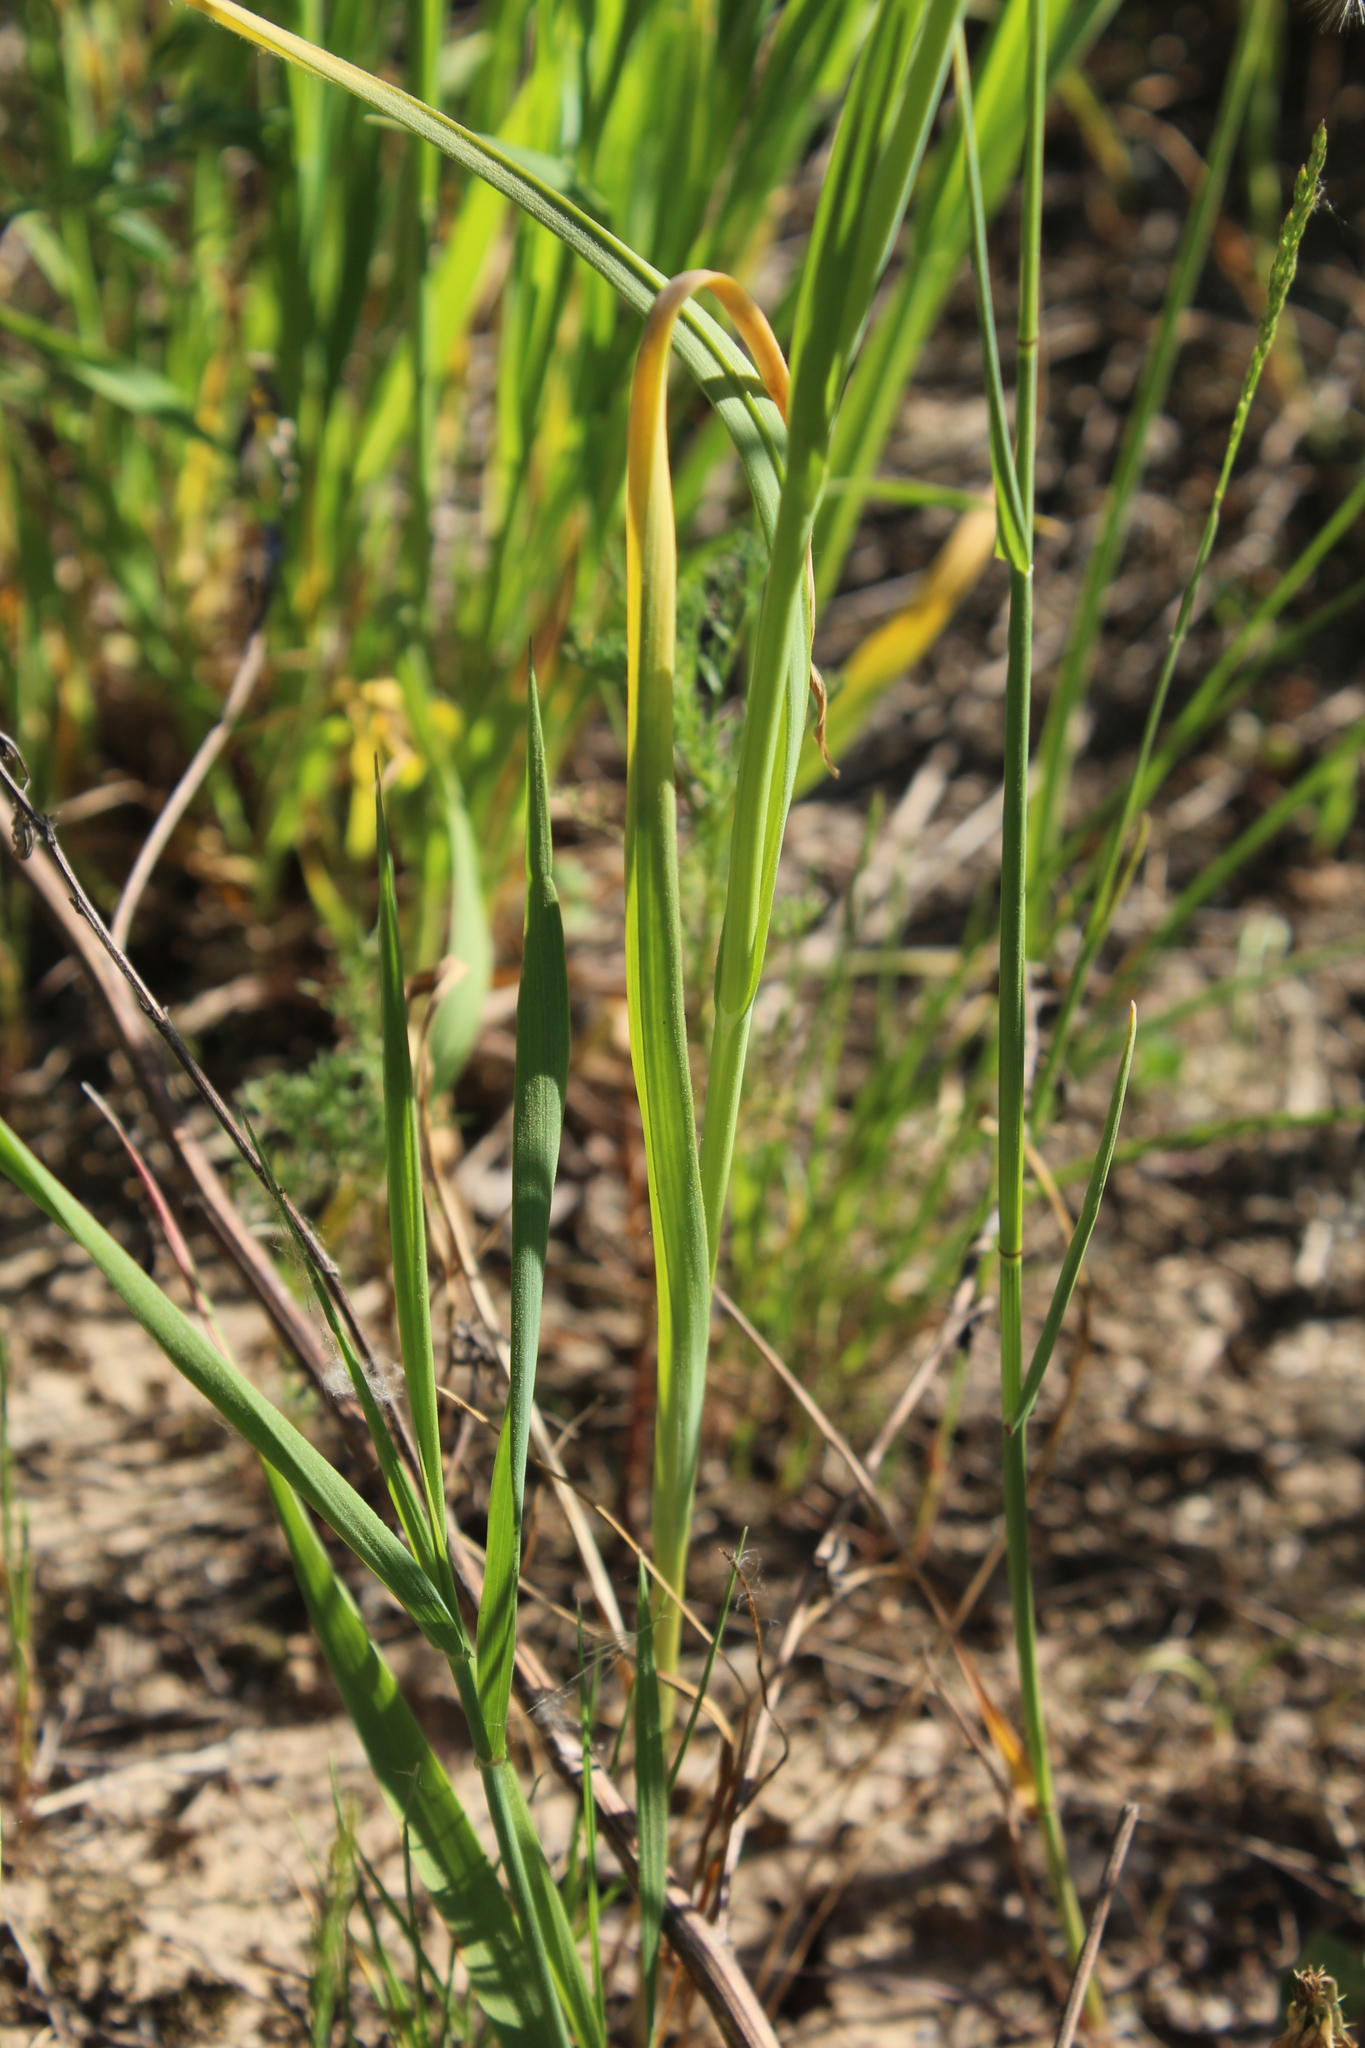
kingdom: Plantae
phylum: Tracheophyta
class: Liliopsida
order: Asparagales
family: Amaryllidaceae
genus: Allium
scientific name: Allium rotundum
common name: Sand leek
